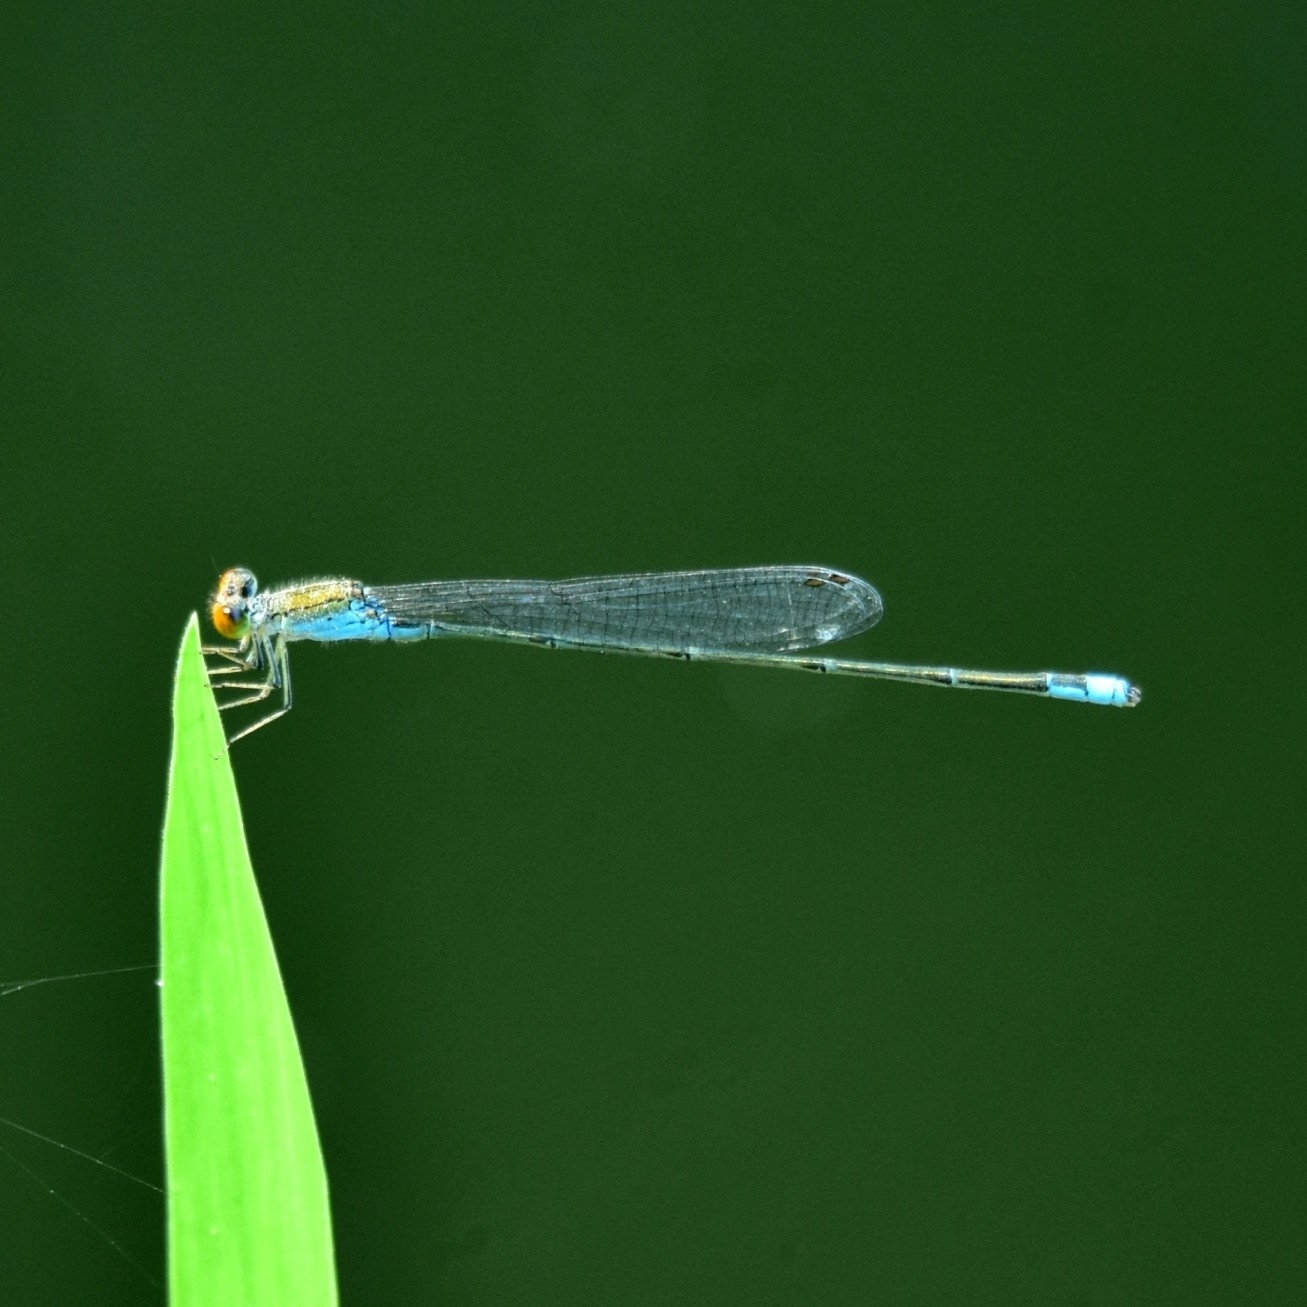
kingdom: Animalia
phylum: Arthropoda
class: Insecta
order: Odonata
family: Coenagrionidae
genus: Pseudagrion
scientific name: Pseudagrion rubriceps
